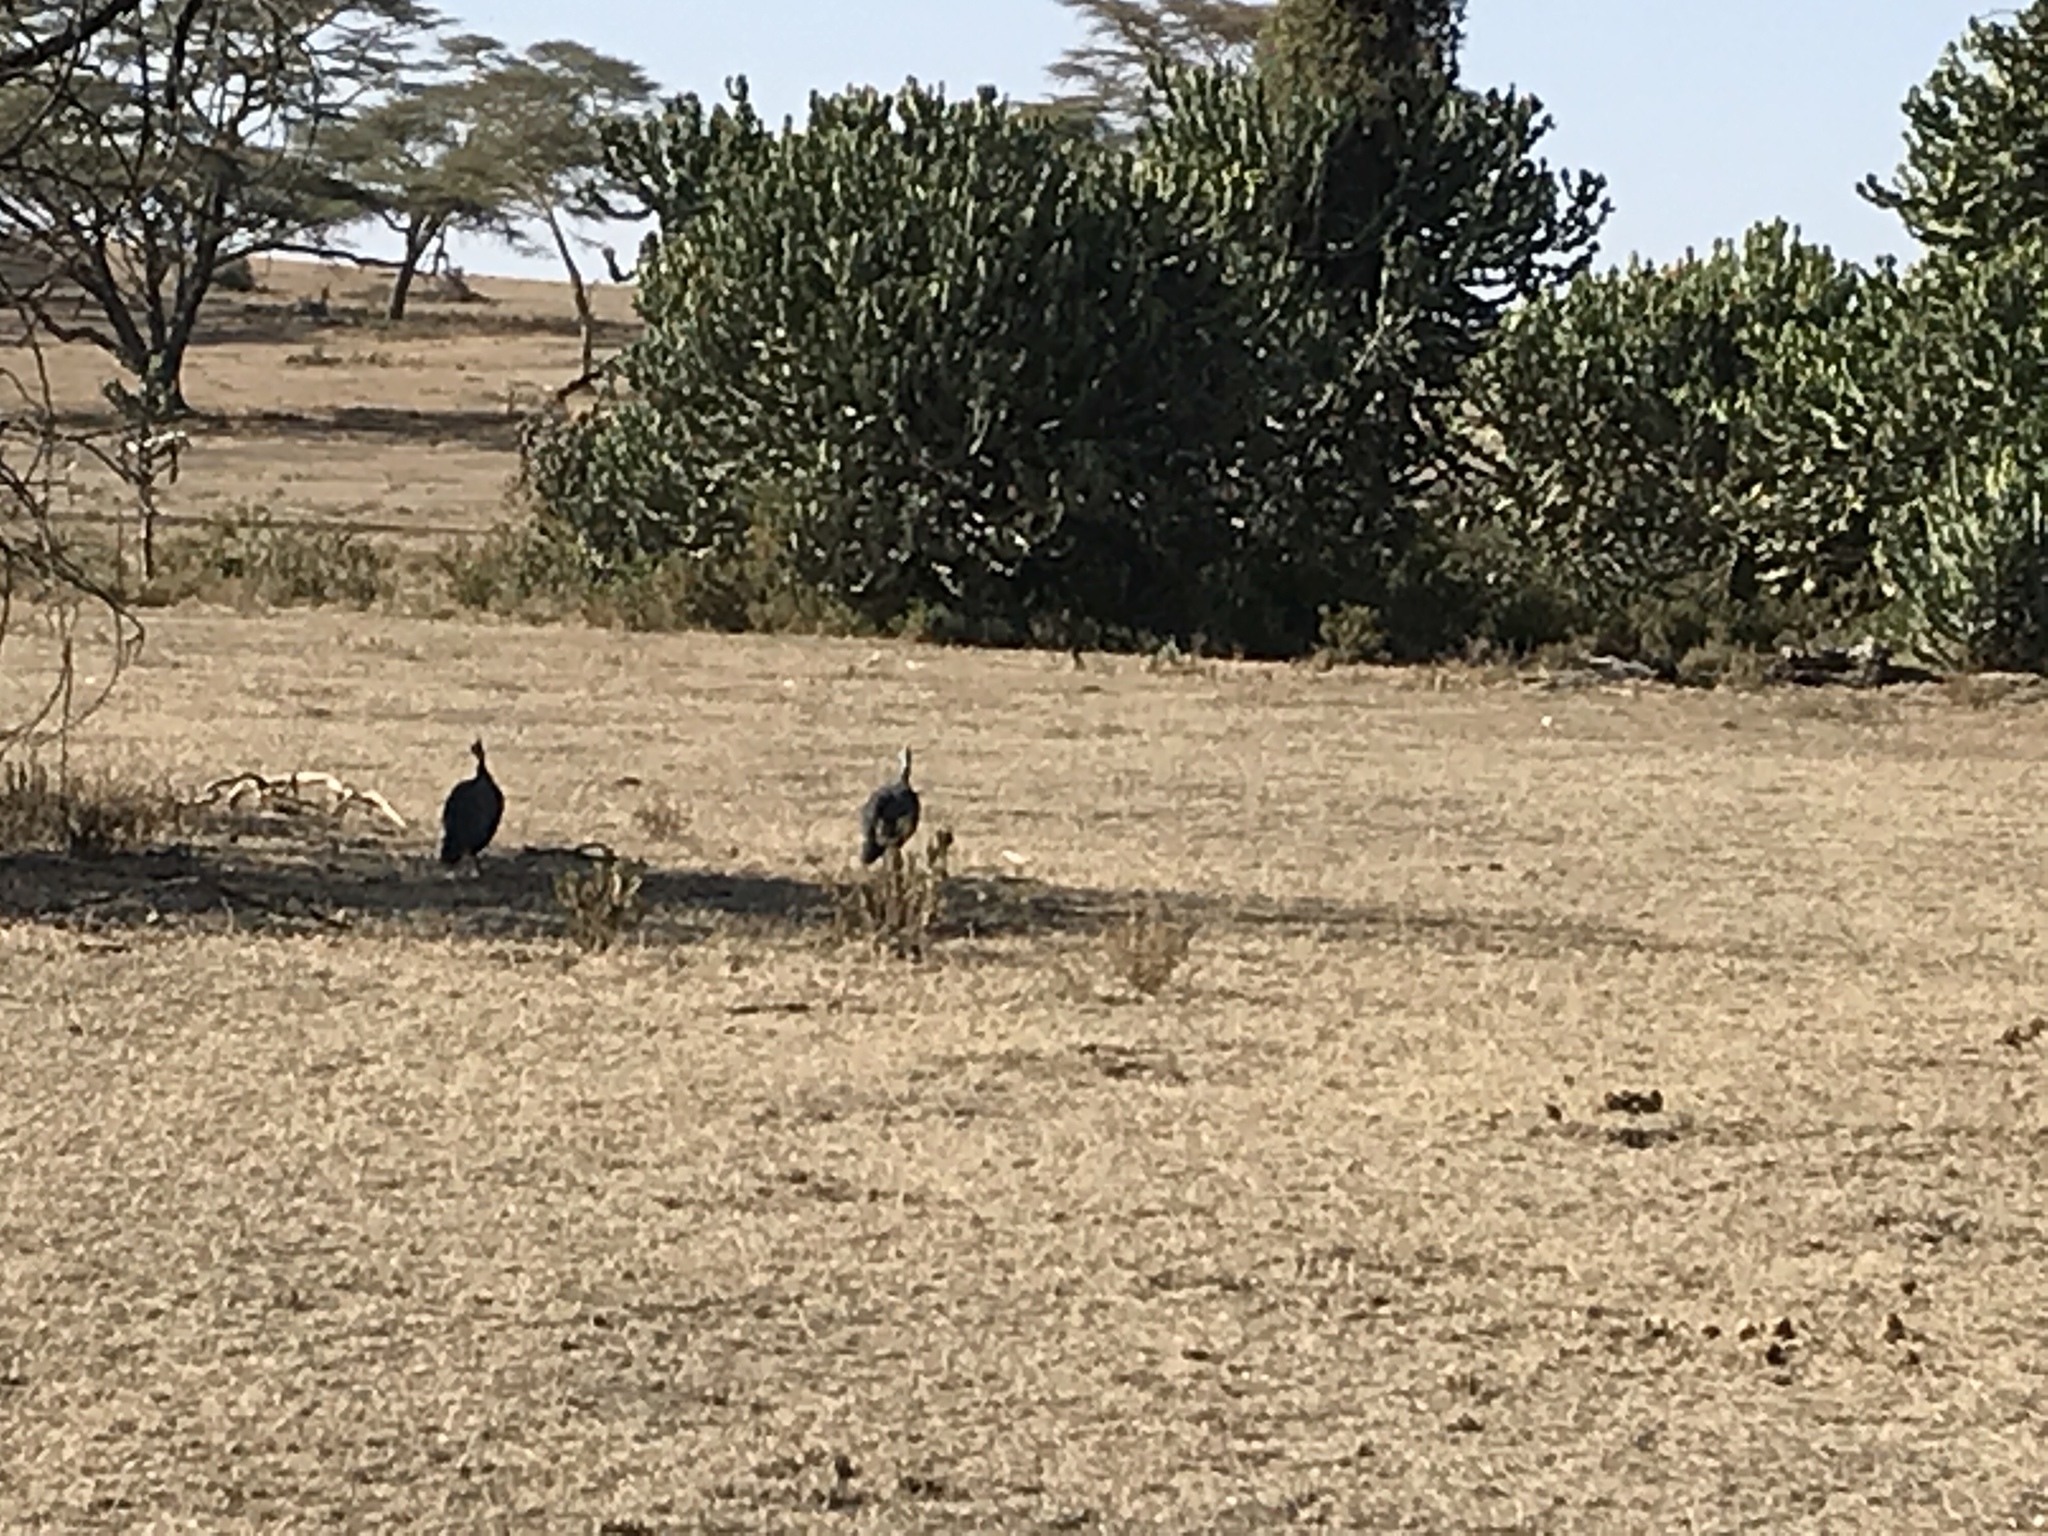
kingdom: Animalia
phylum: Chordata
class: Aves
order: Galliformes
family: Numididae
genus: Numida
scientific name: Numida meleagris
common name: Helmeted guineafowl
